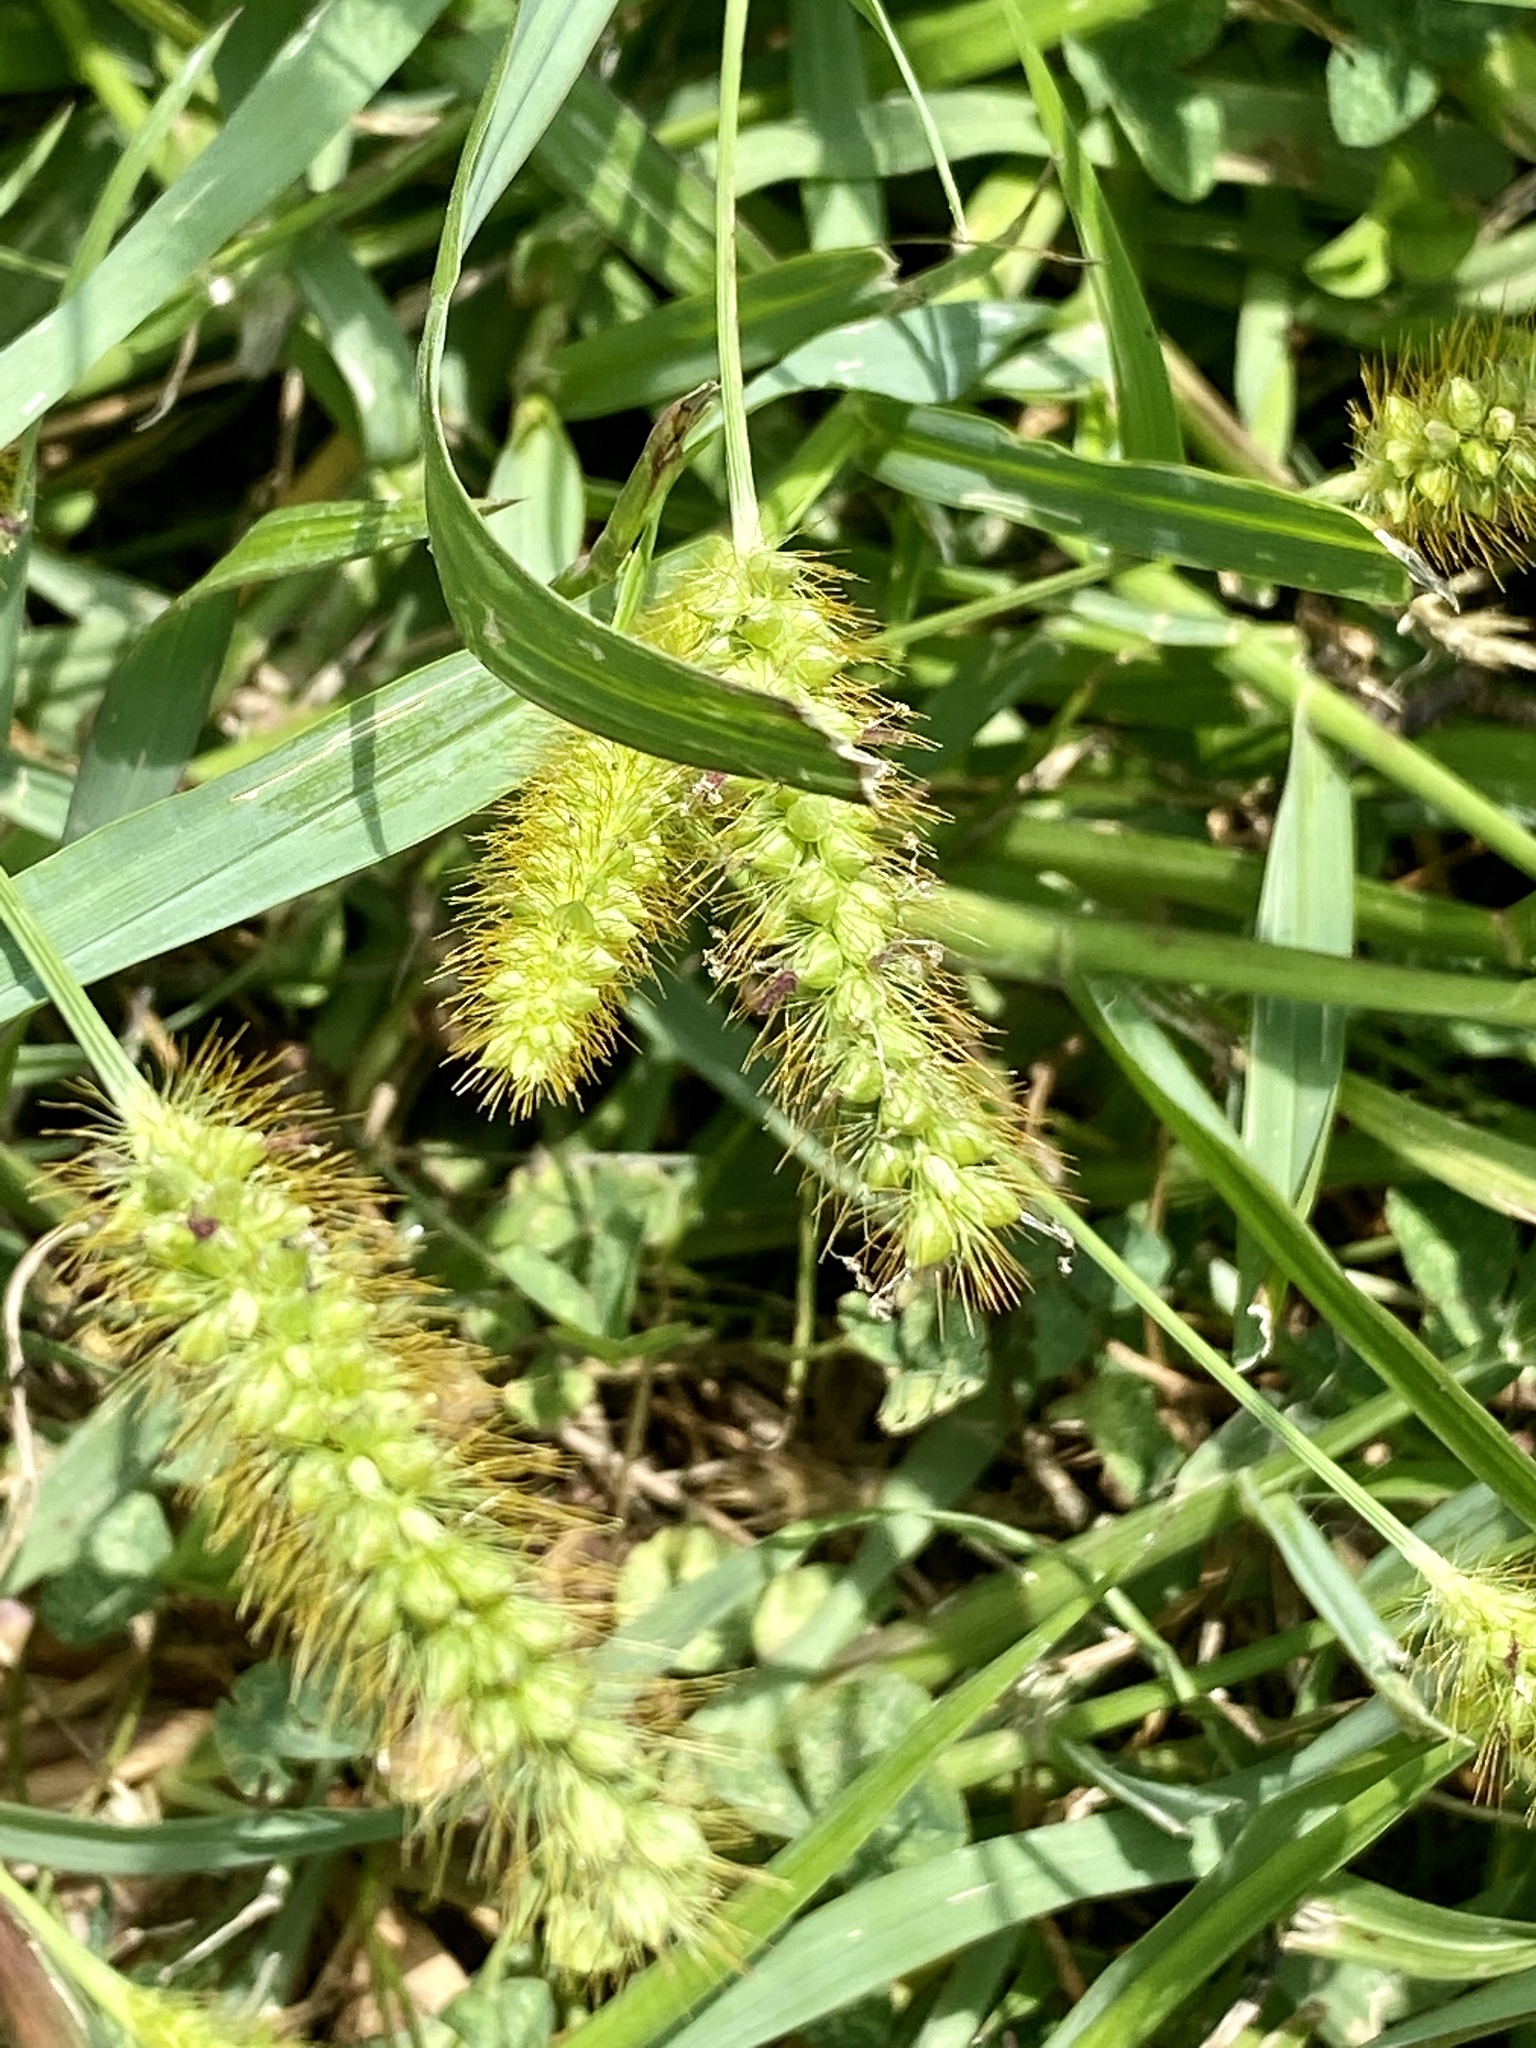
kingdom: Plantae
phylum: Tracheophyta
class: Liliopsida
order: Poales
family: Poaceae
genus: Setaria
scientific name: Setaria pumila
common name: Yellow bristle-grass
